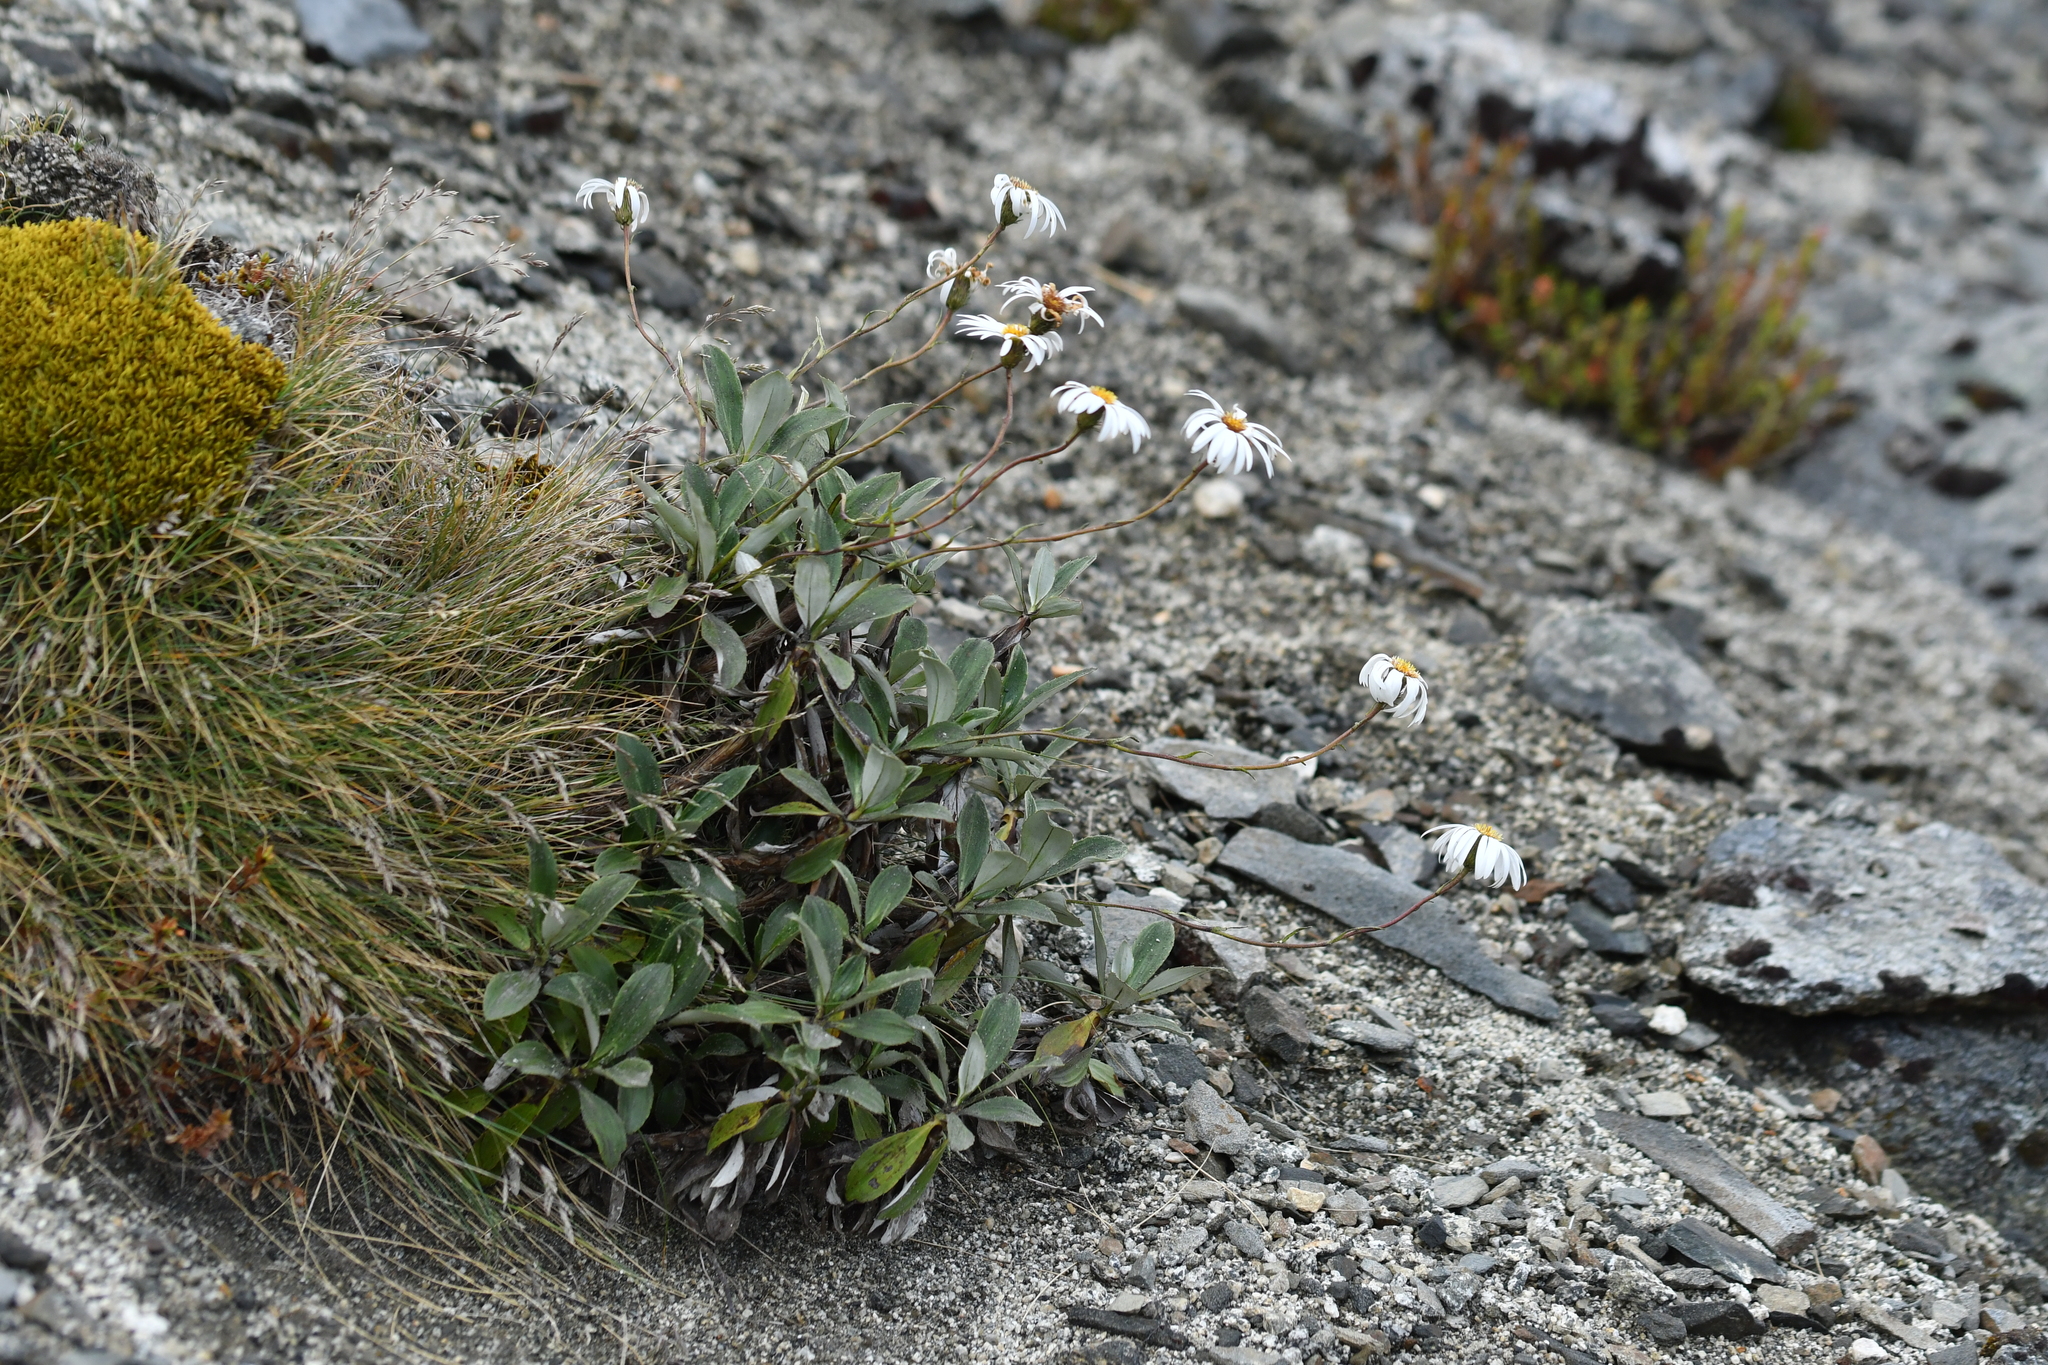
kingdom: Plantae
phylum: Tracheophyta
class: Magnoliopsida
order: Asterales
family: Asteraceae
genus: Celmisia
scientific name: Celmisia durietzii
